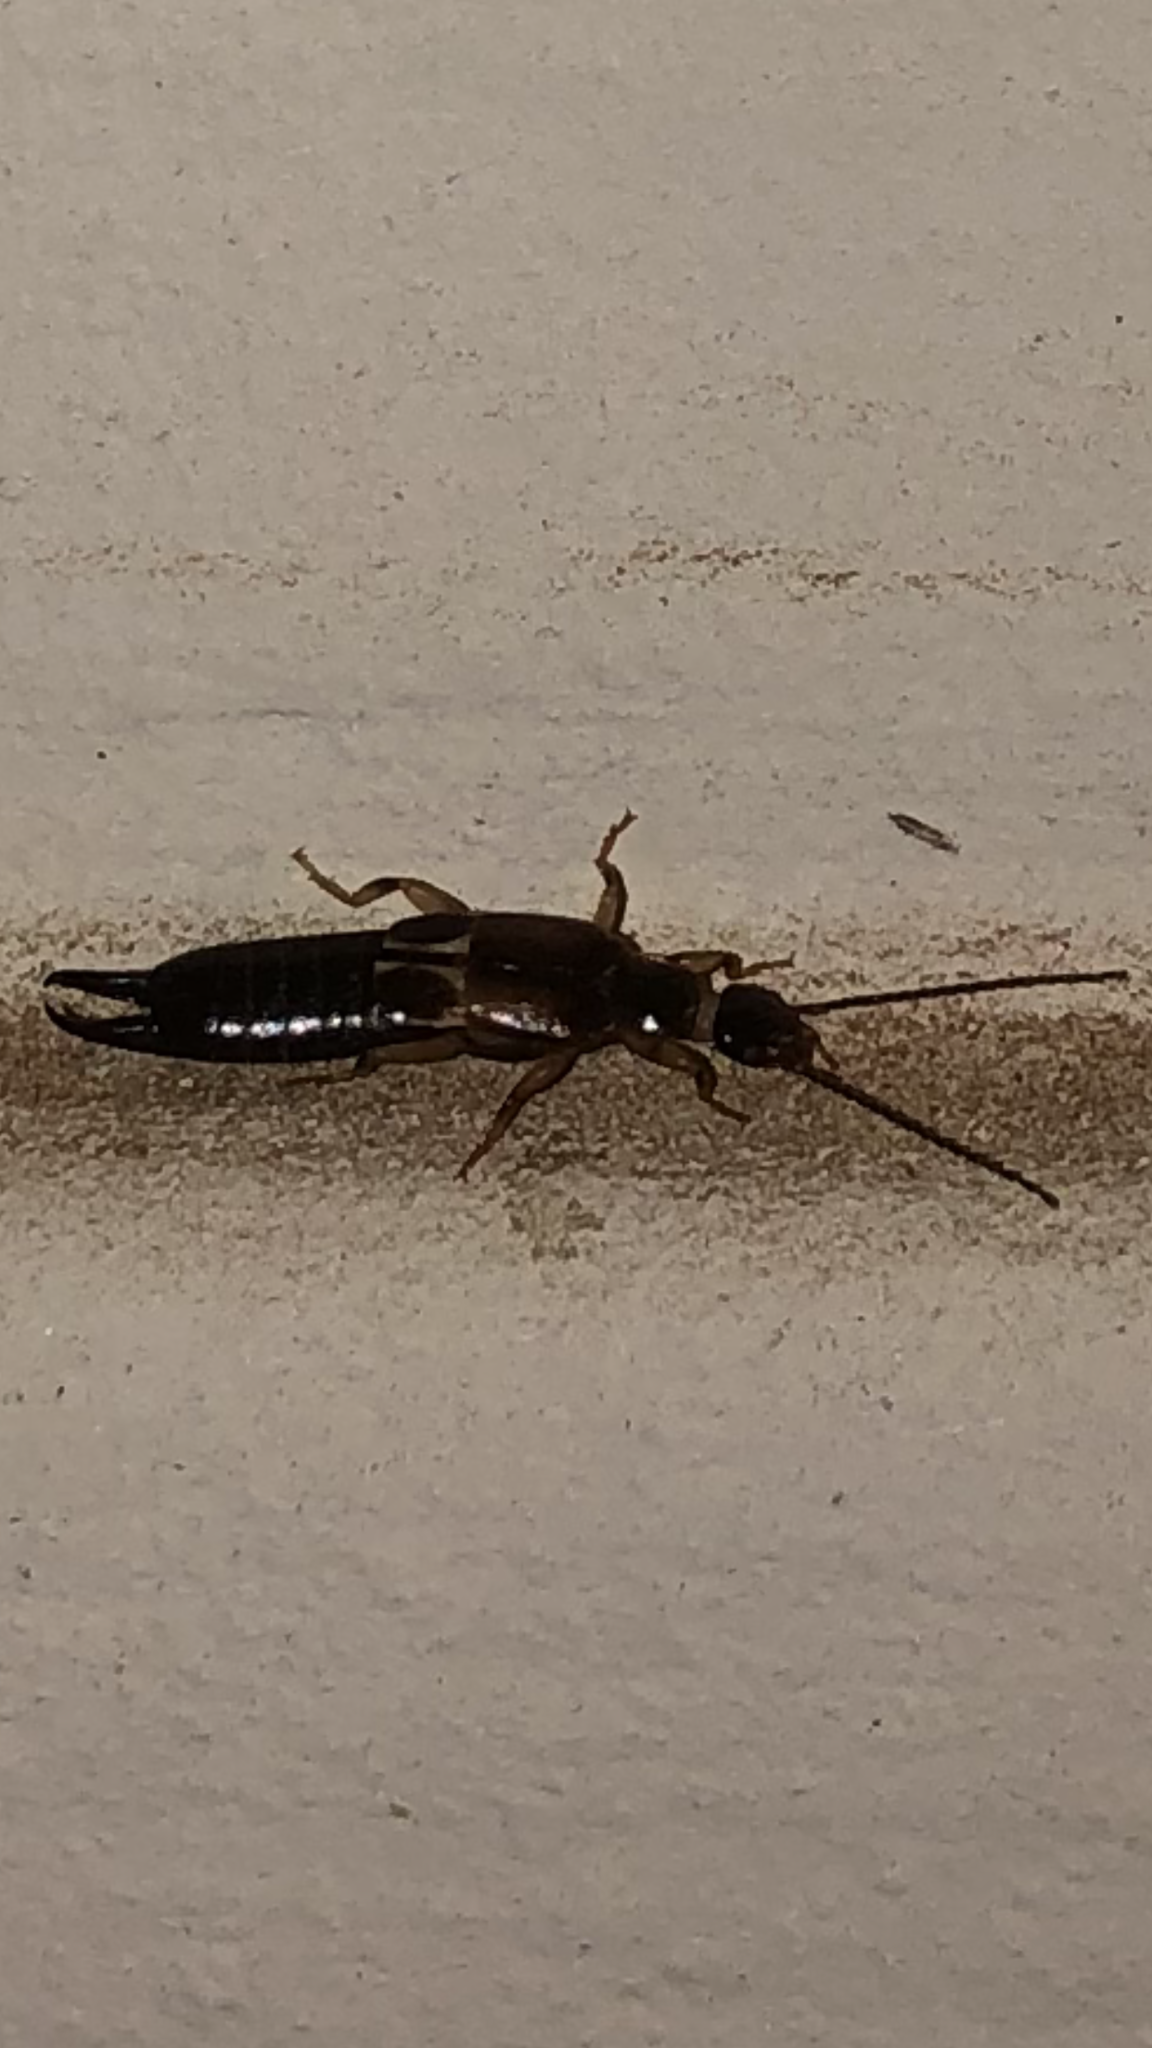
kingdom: Animalia
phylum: Arthropoda
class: Insecta
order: Dermaptera
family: Anisolabididae
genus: Euborellia
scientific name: Euborellia cincticollis
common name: African earwig
